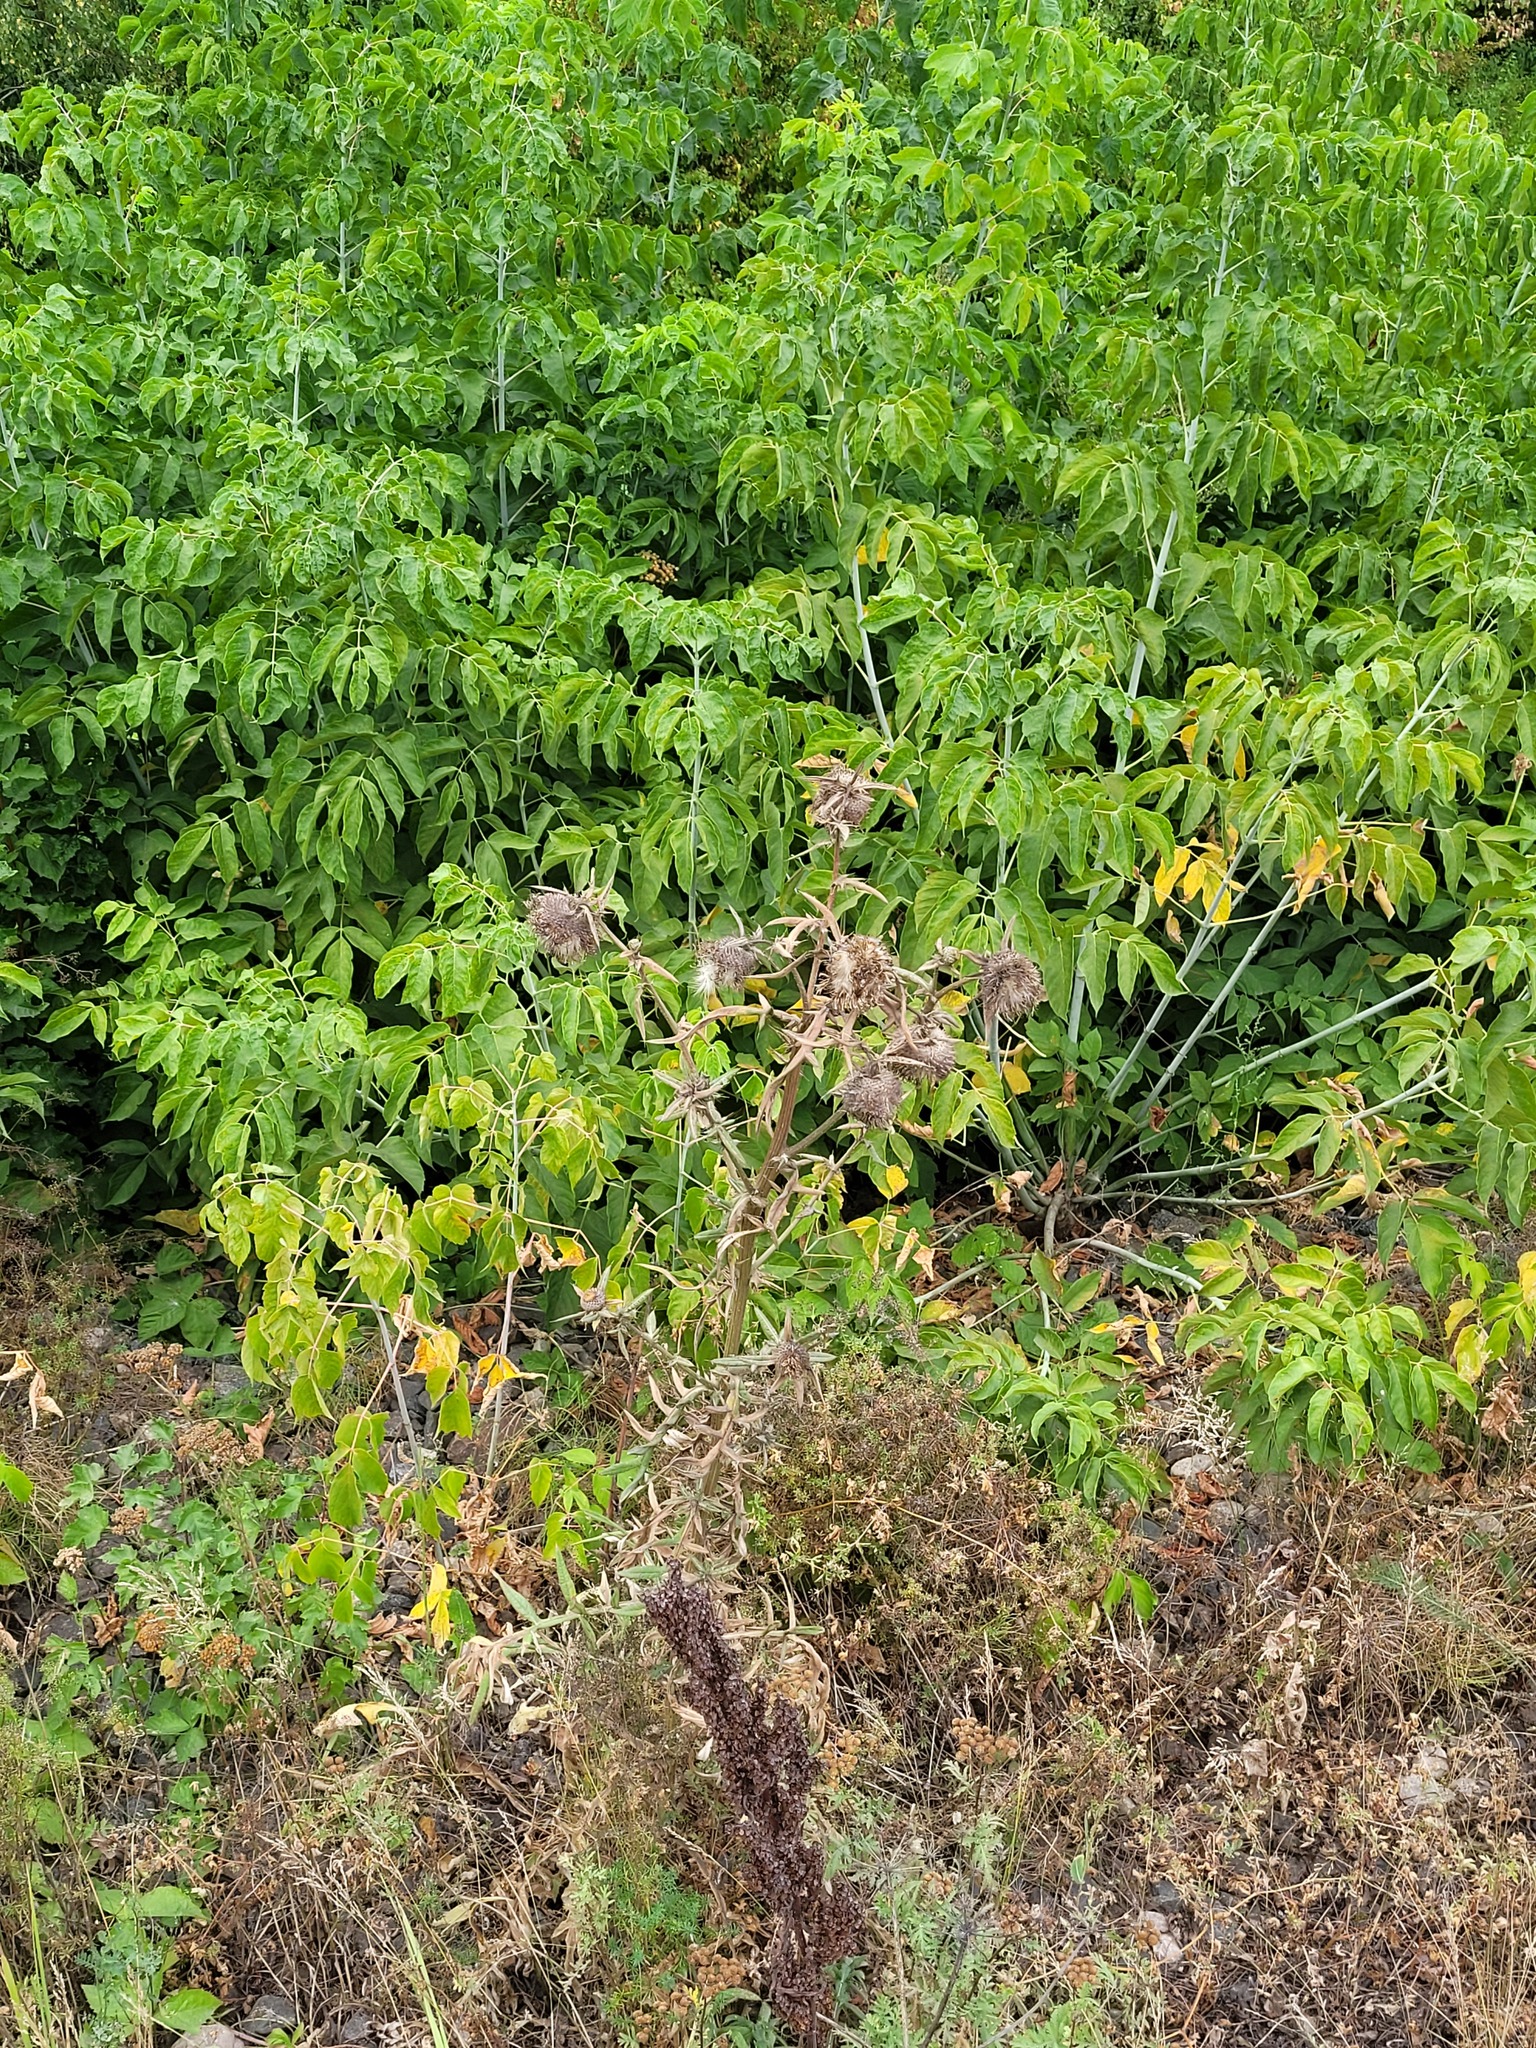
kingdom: Plantae
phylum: Tracheophyta
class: Magnoliopsida
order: Asterales
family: Asteraceae
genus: Lophiolepis
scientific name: Lophiolepis decussata
